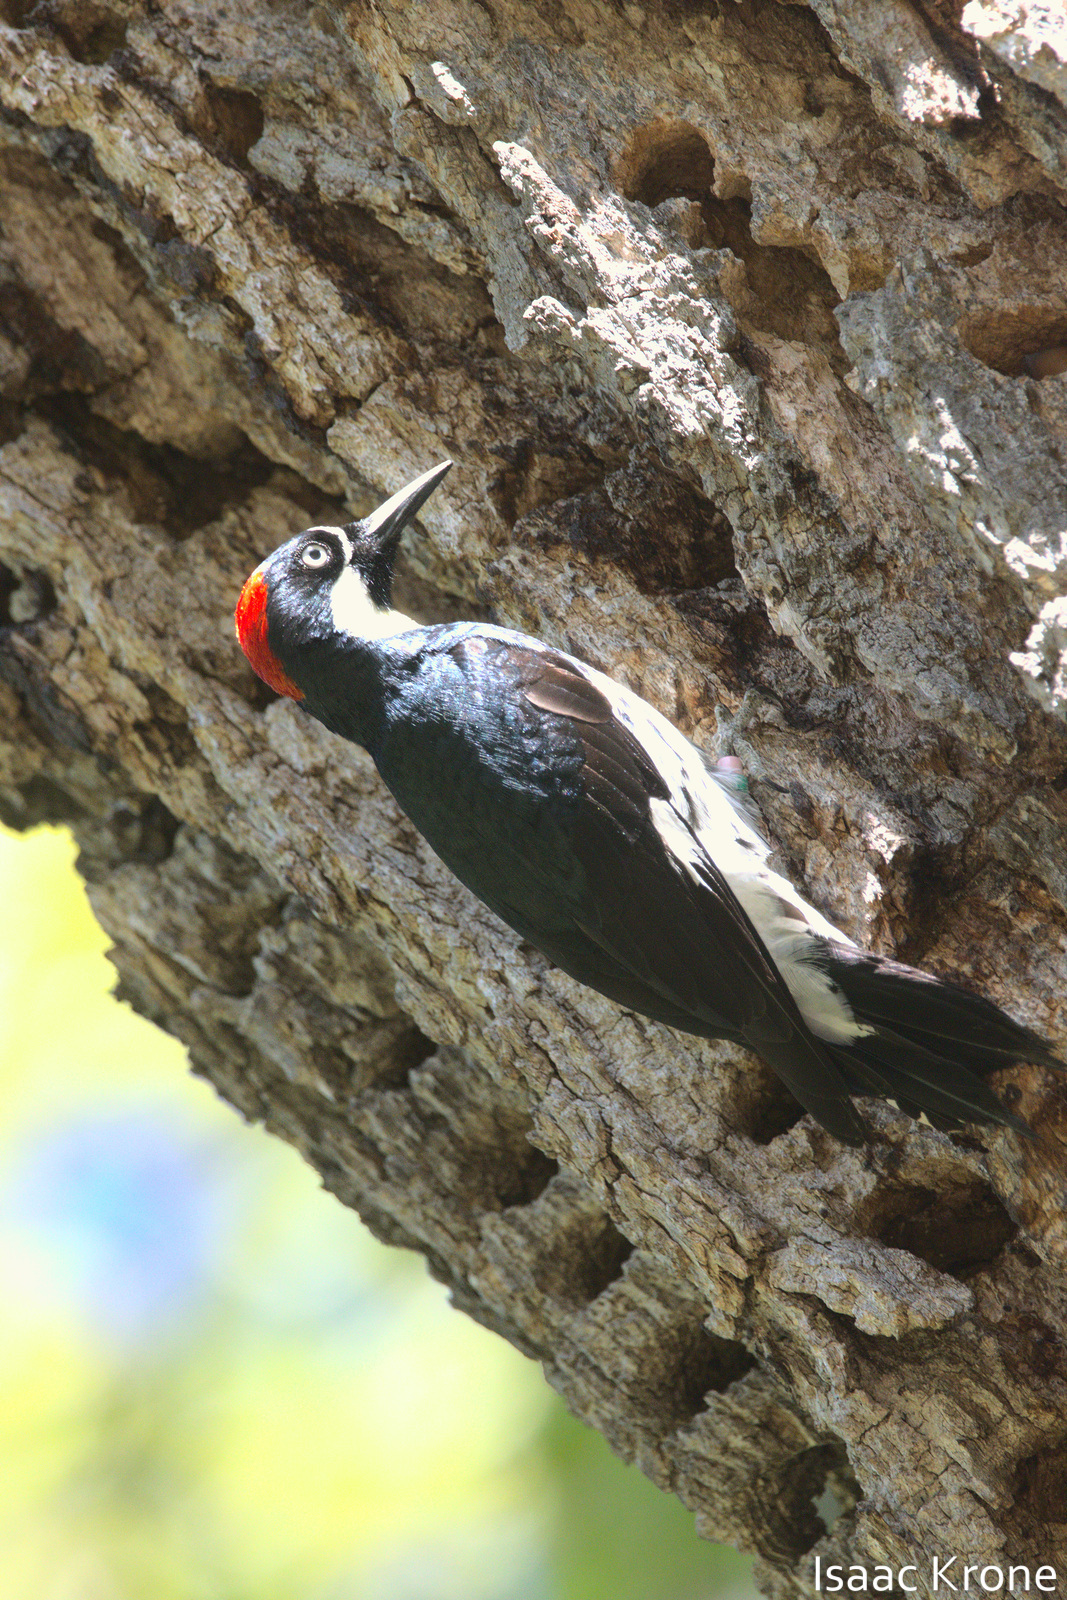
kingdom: Animalia
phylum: Chordata
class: Aves
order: Piciformes
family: Picidae
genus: Melanerpes
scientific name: Melanerpes formicivorus
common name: Acorn woodpecker
